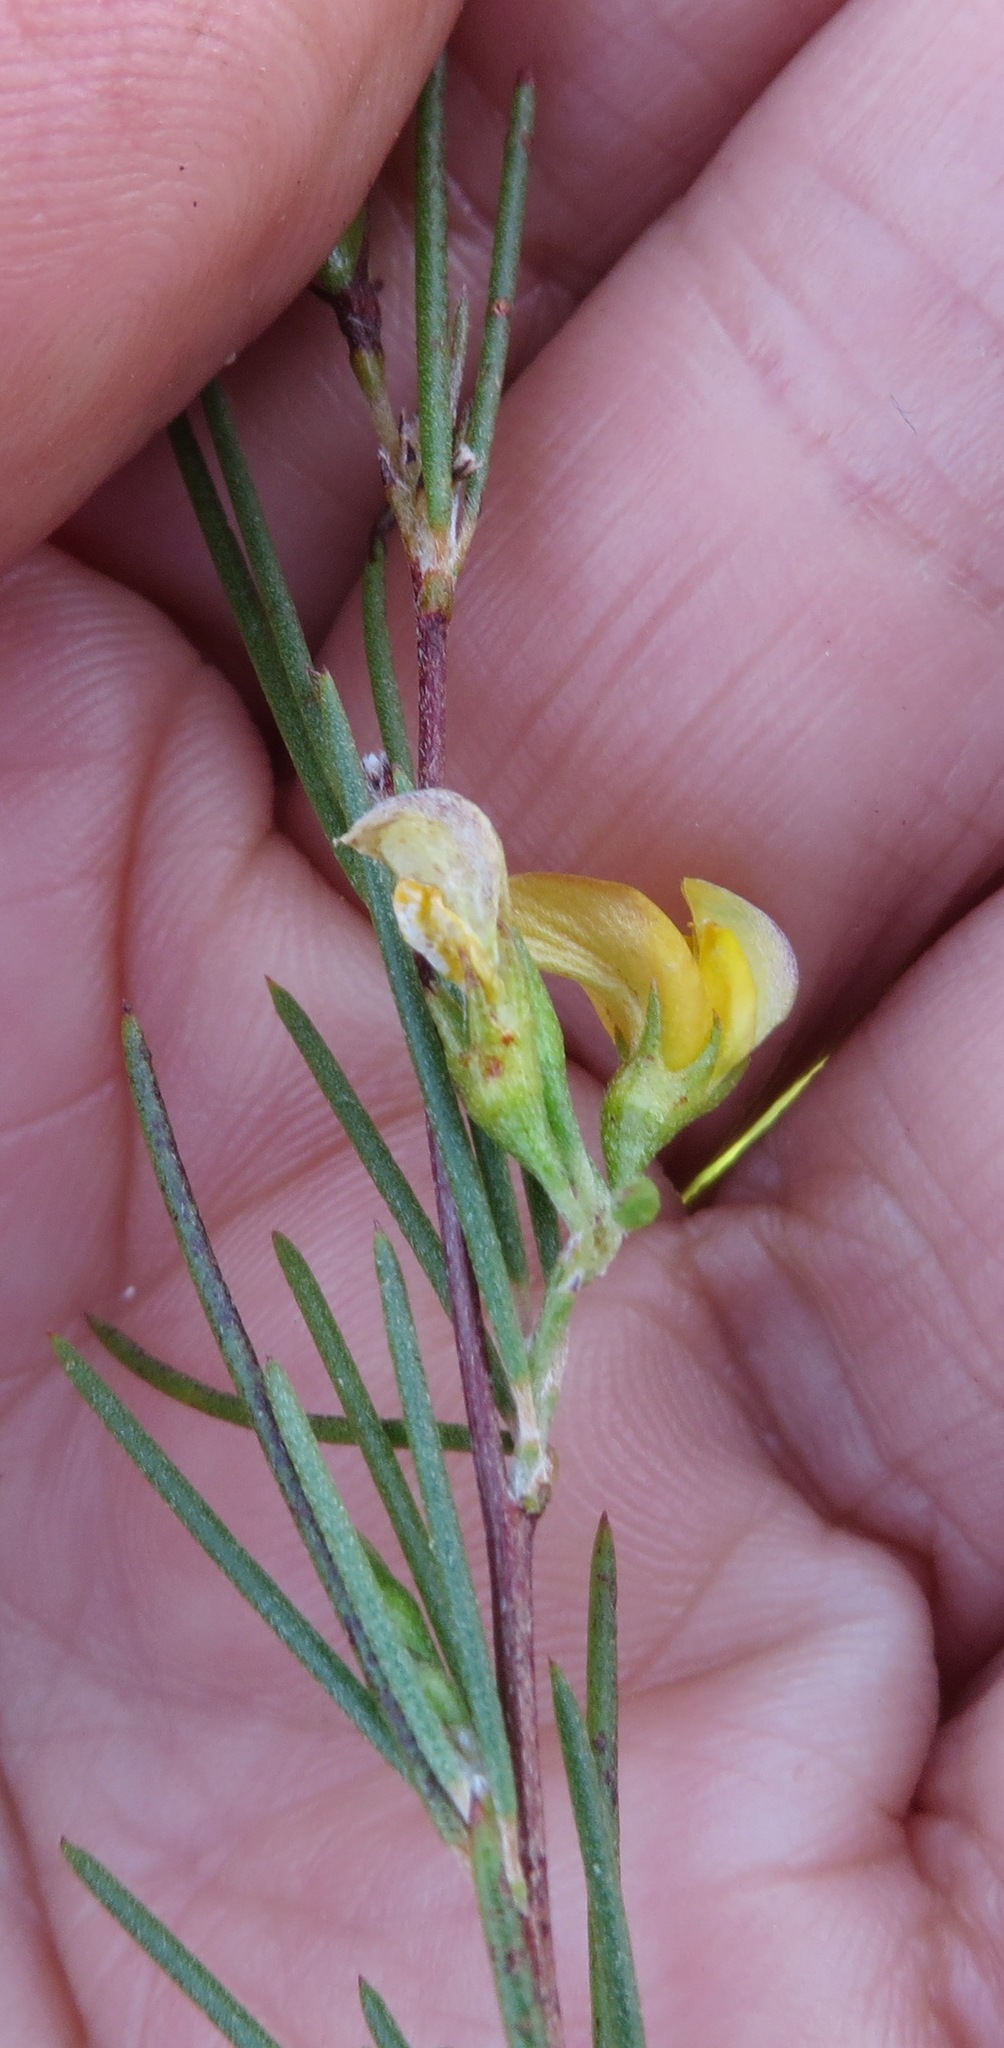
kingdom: Plantae
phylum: Tracheophyta
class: Magnoliopsida
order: Fabales
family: Fabaceae
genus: Aspalathus
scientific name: Aspalathus linearis
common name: Rooibos-tea
